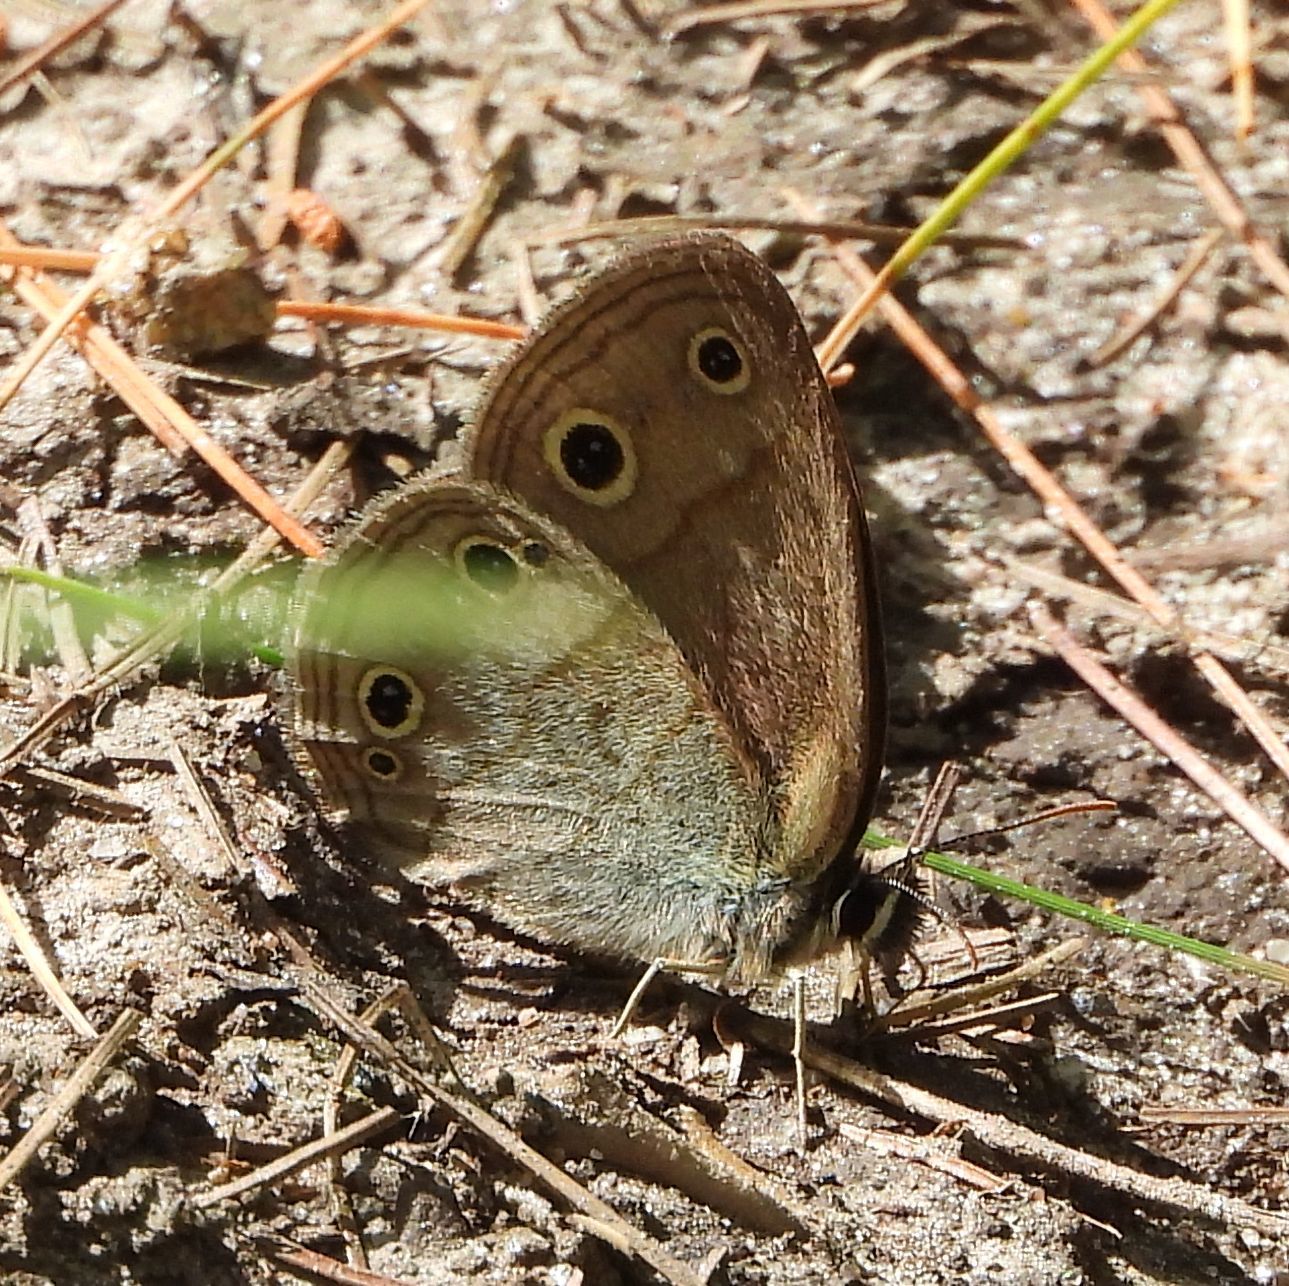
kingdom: Animalia
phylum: Arthropoda
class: Insecta
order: Lepidoptera
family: Nymphalidae
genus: Euptychia
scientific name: Euptychia cymela
